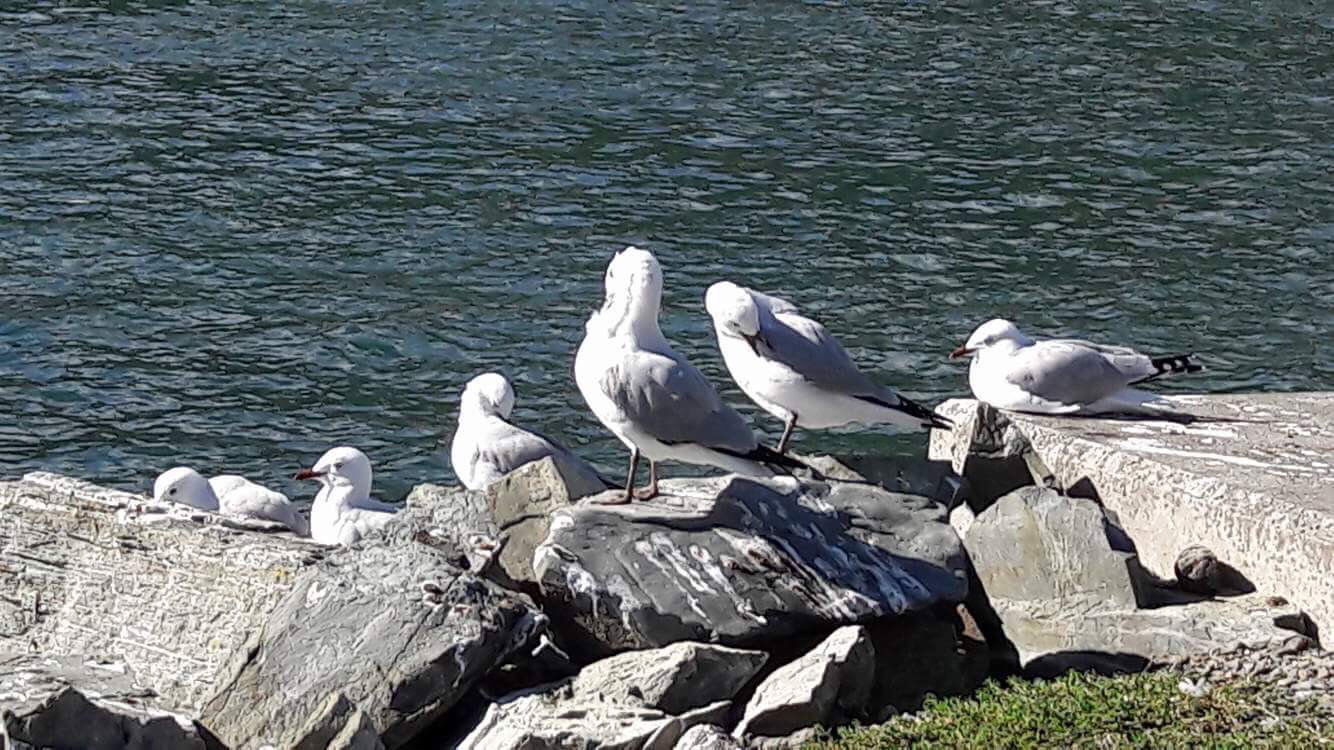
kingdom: Animalia
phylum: Chordata
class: Aves
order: Charadriiformes
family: Laridae
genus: Chroicocephalus
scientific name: Chroicocephalus novaehollandiae
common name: Silver gull
